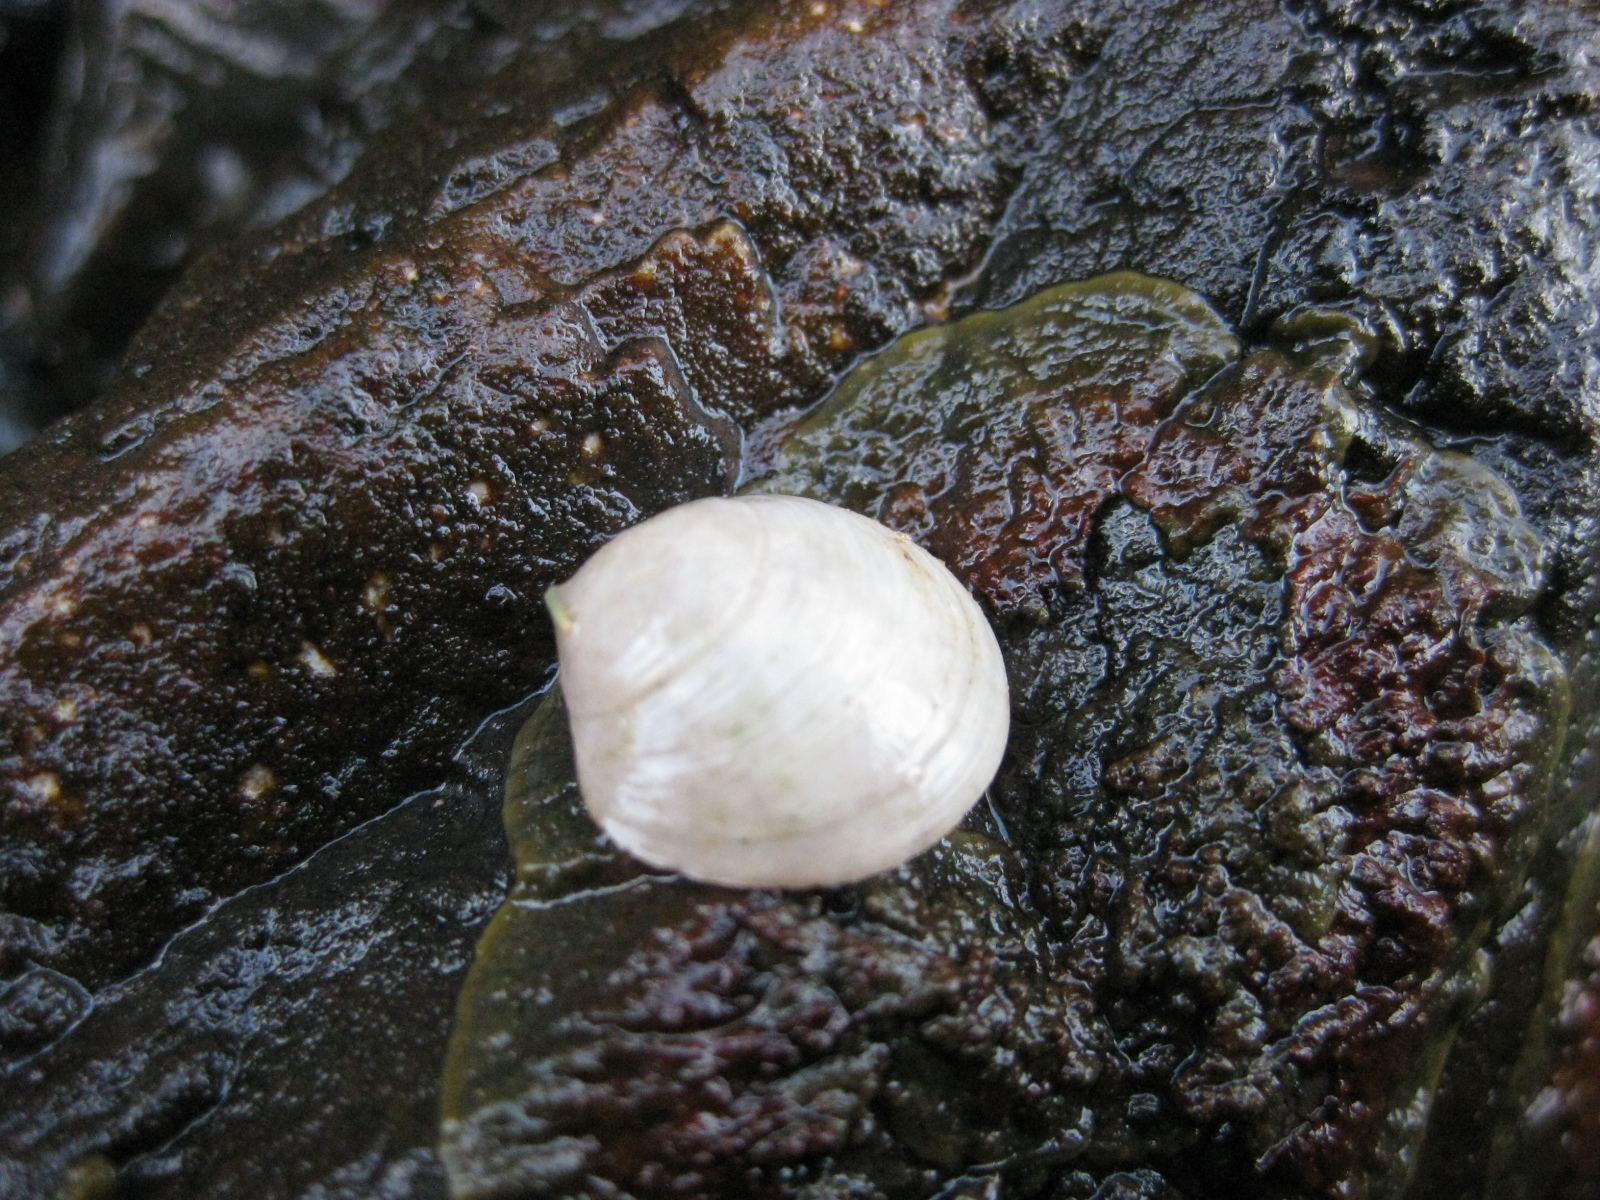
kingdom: Animalia
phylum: Mollusca
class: Bivalvia
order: Venerida
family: Ungulinidae
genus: Zemysina
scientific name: Zemysina striatula
